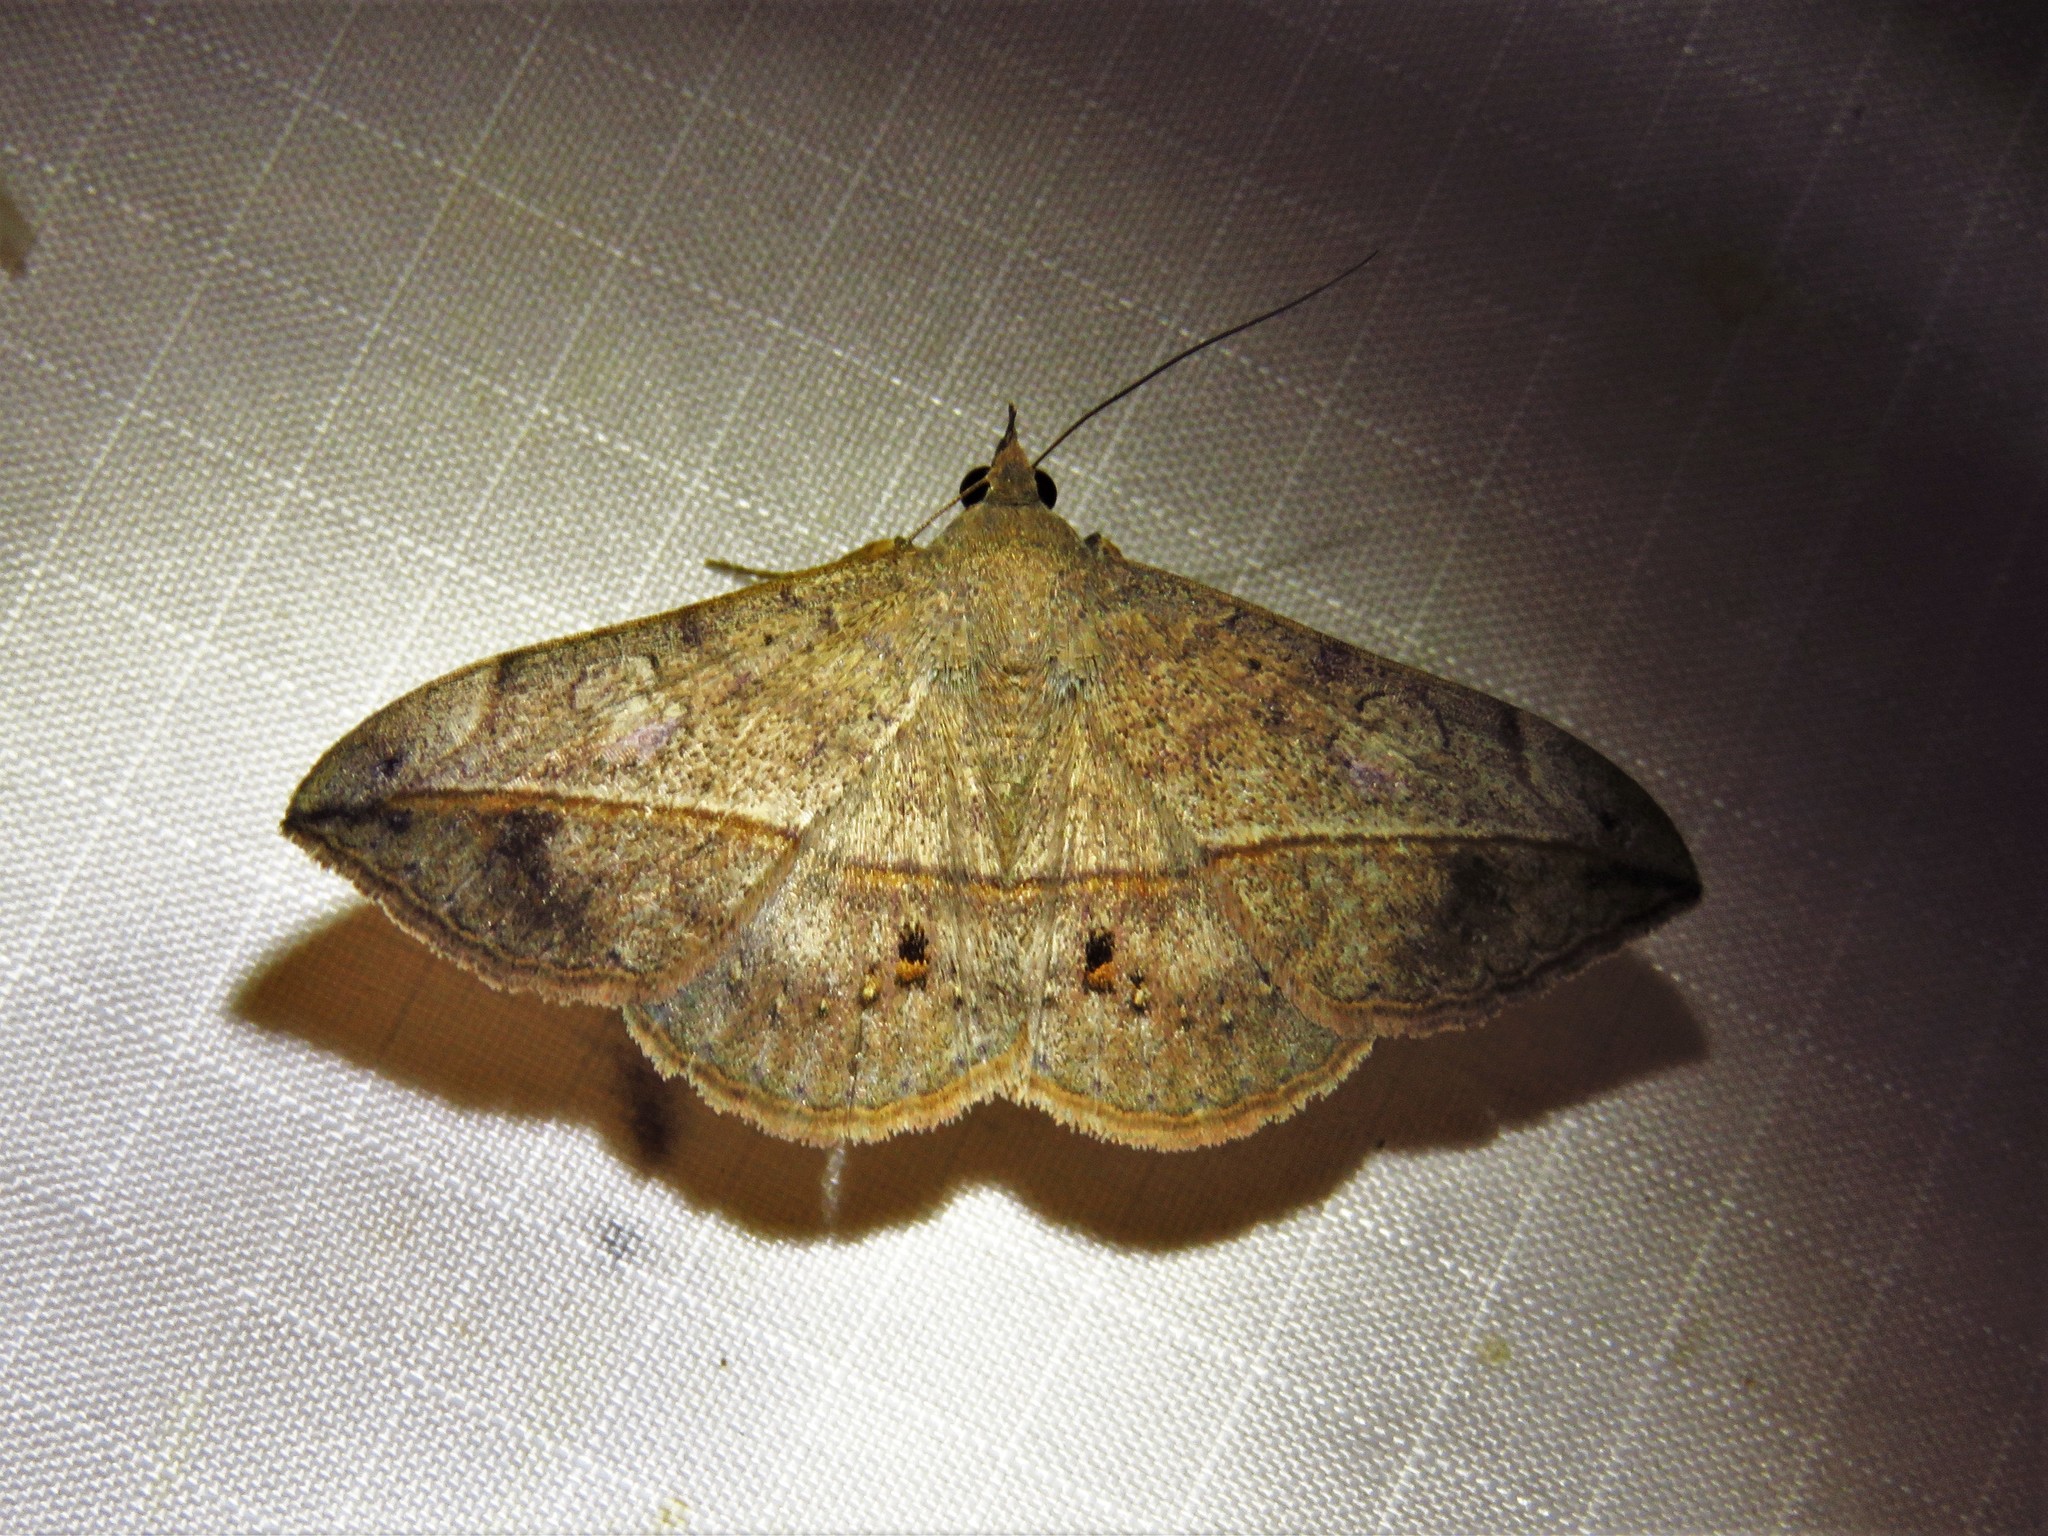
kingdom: Animalia
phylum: Arthropoda
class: Insecta
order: Lepidoptera
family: Erebidae
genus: Anticarsia
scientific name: Anticarsia gemmatalis
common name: Cutworm moth
